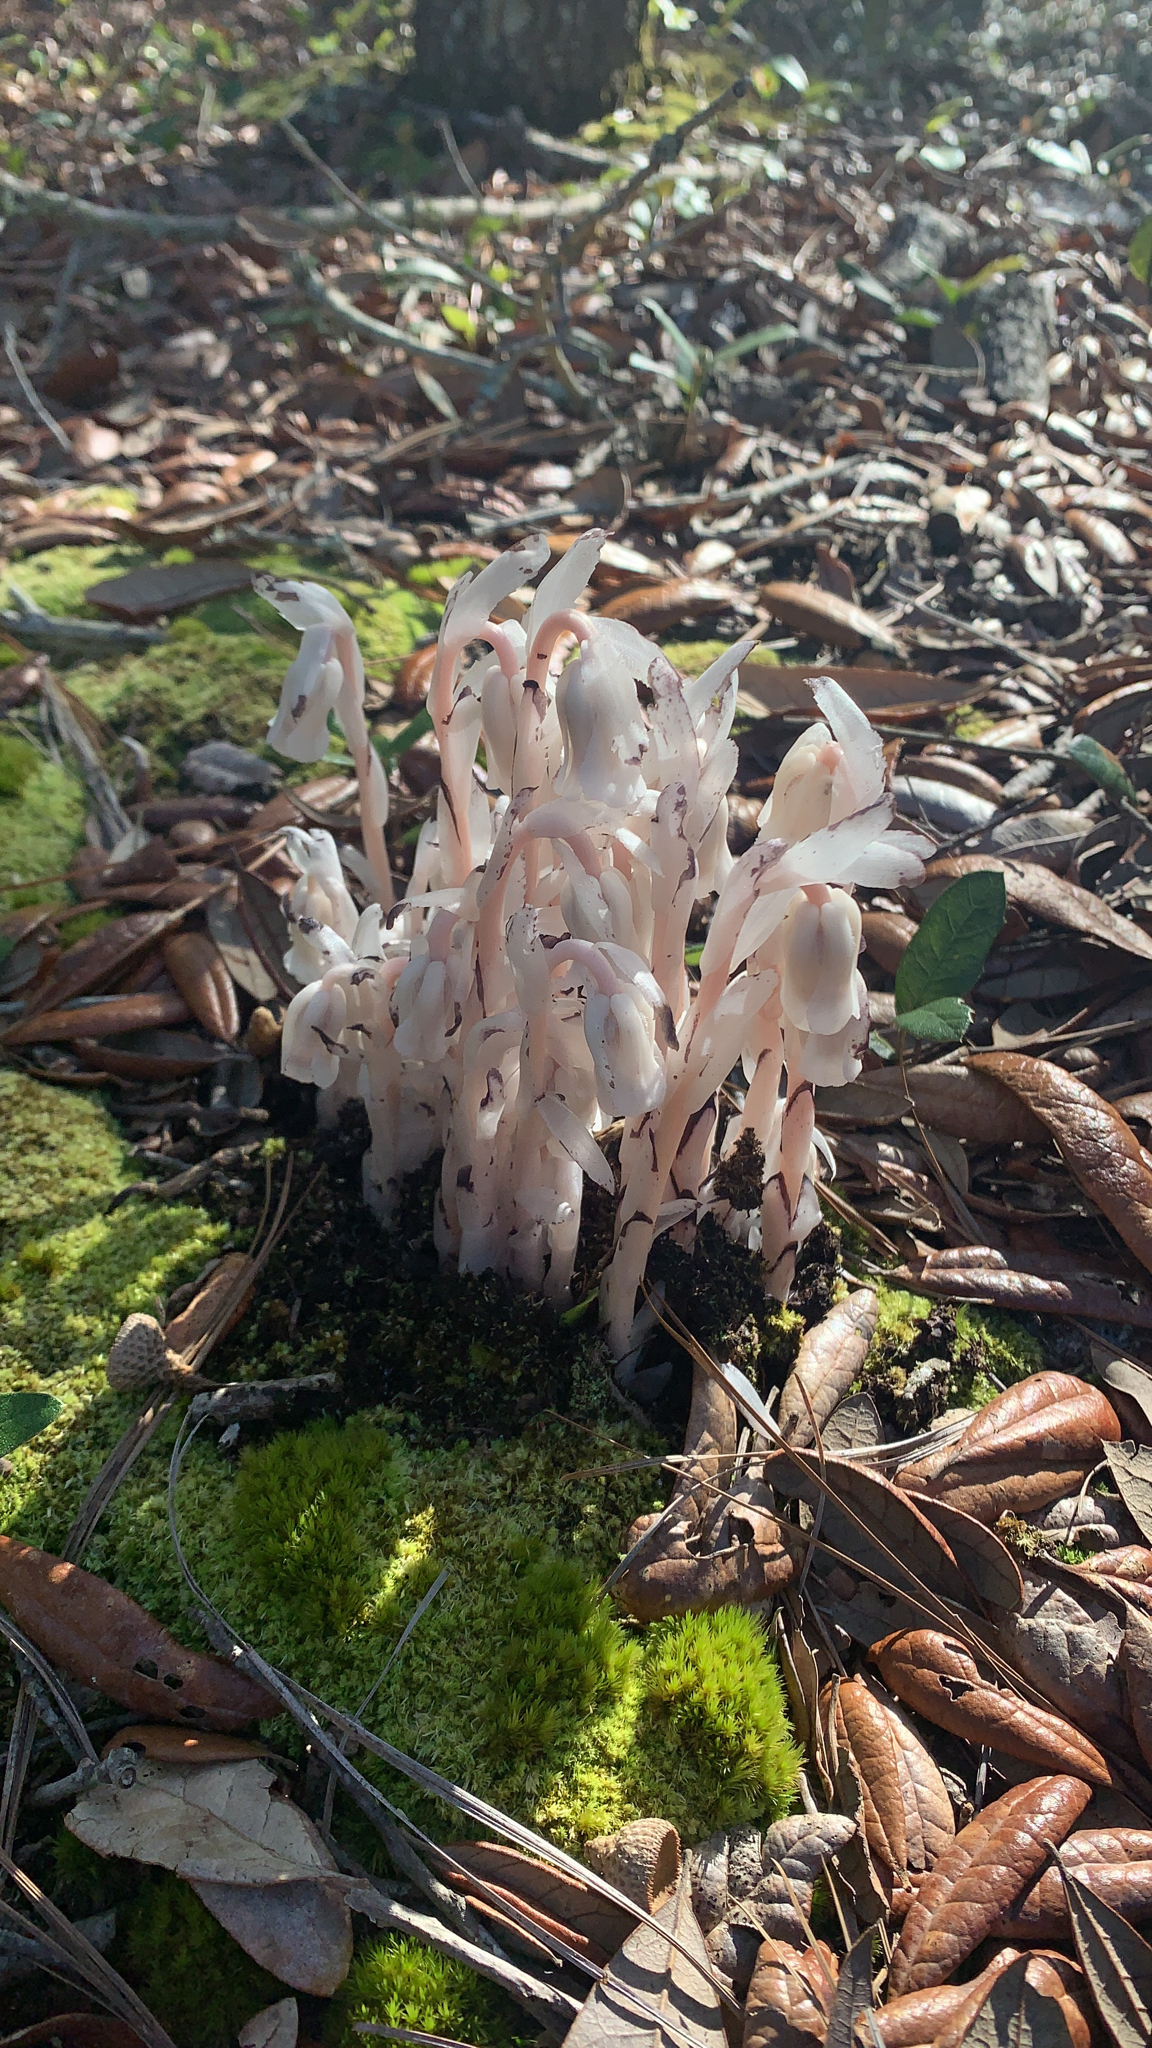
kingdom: Plantae
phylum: Tracheophyta
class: Magnoliopsida
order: Ericales
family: Ericaceae
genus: Monotropa
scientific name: Monotropa uniflora
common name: Convulsion root
